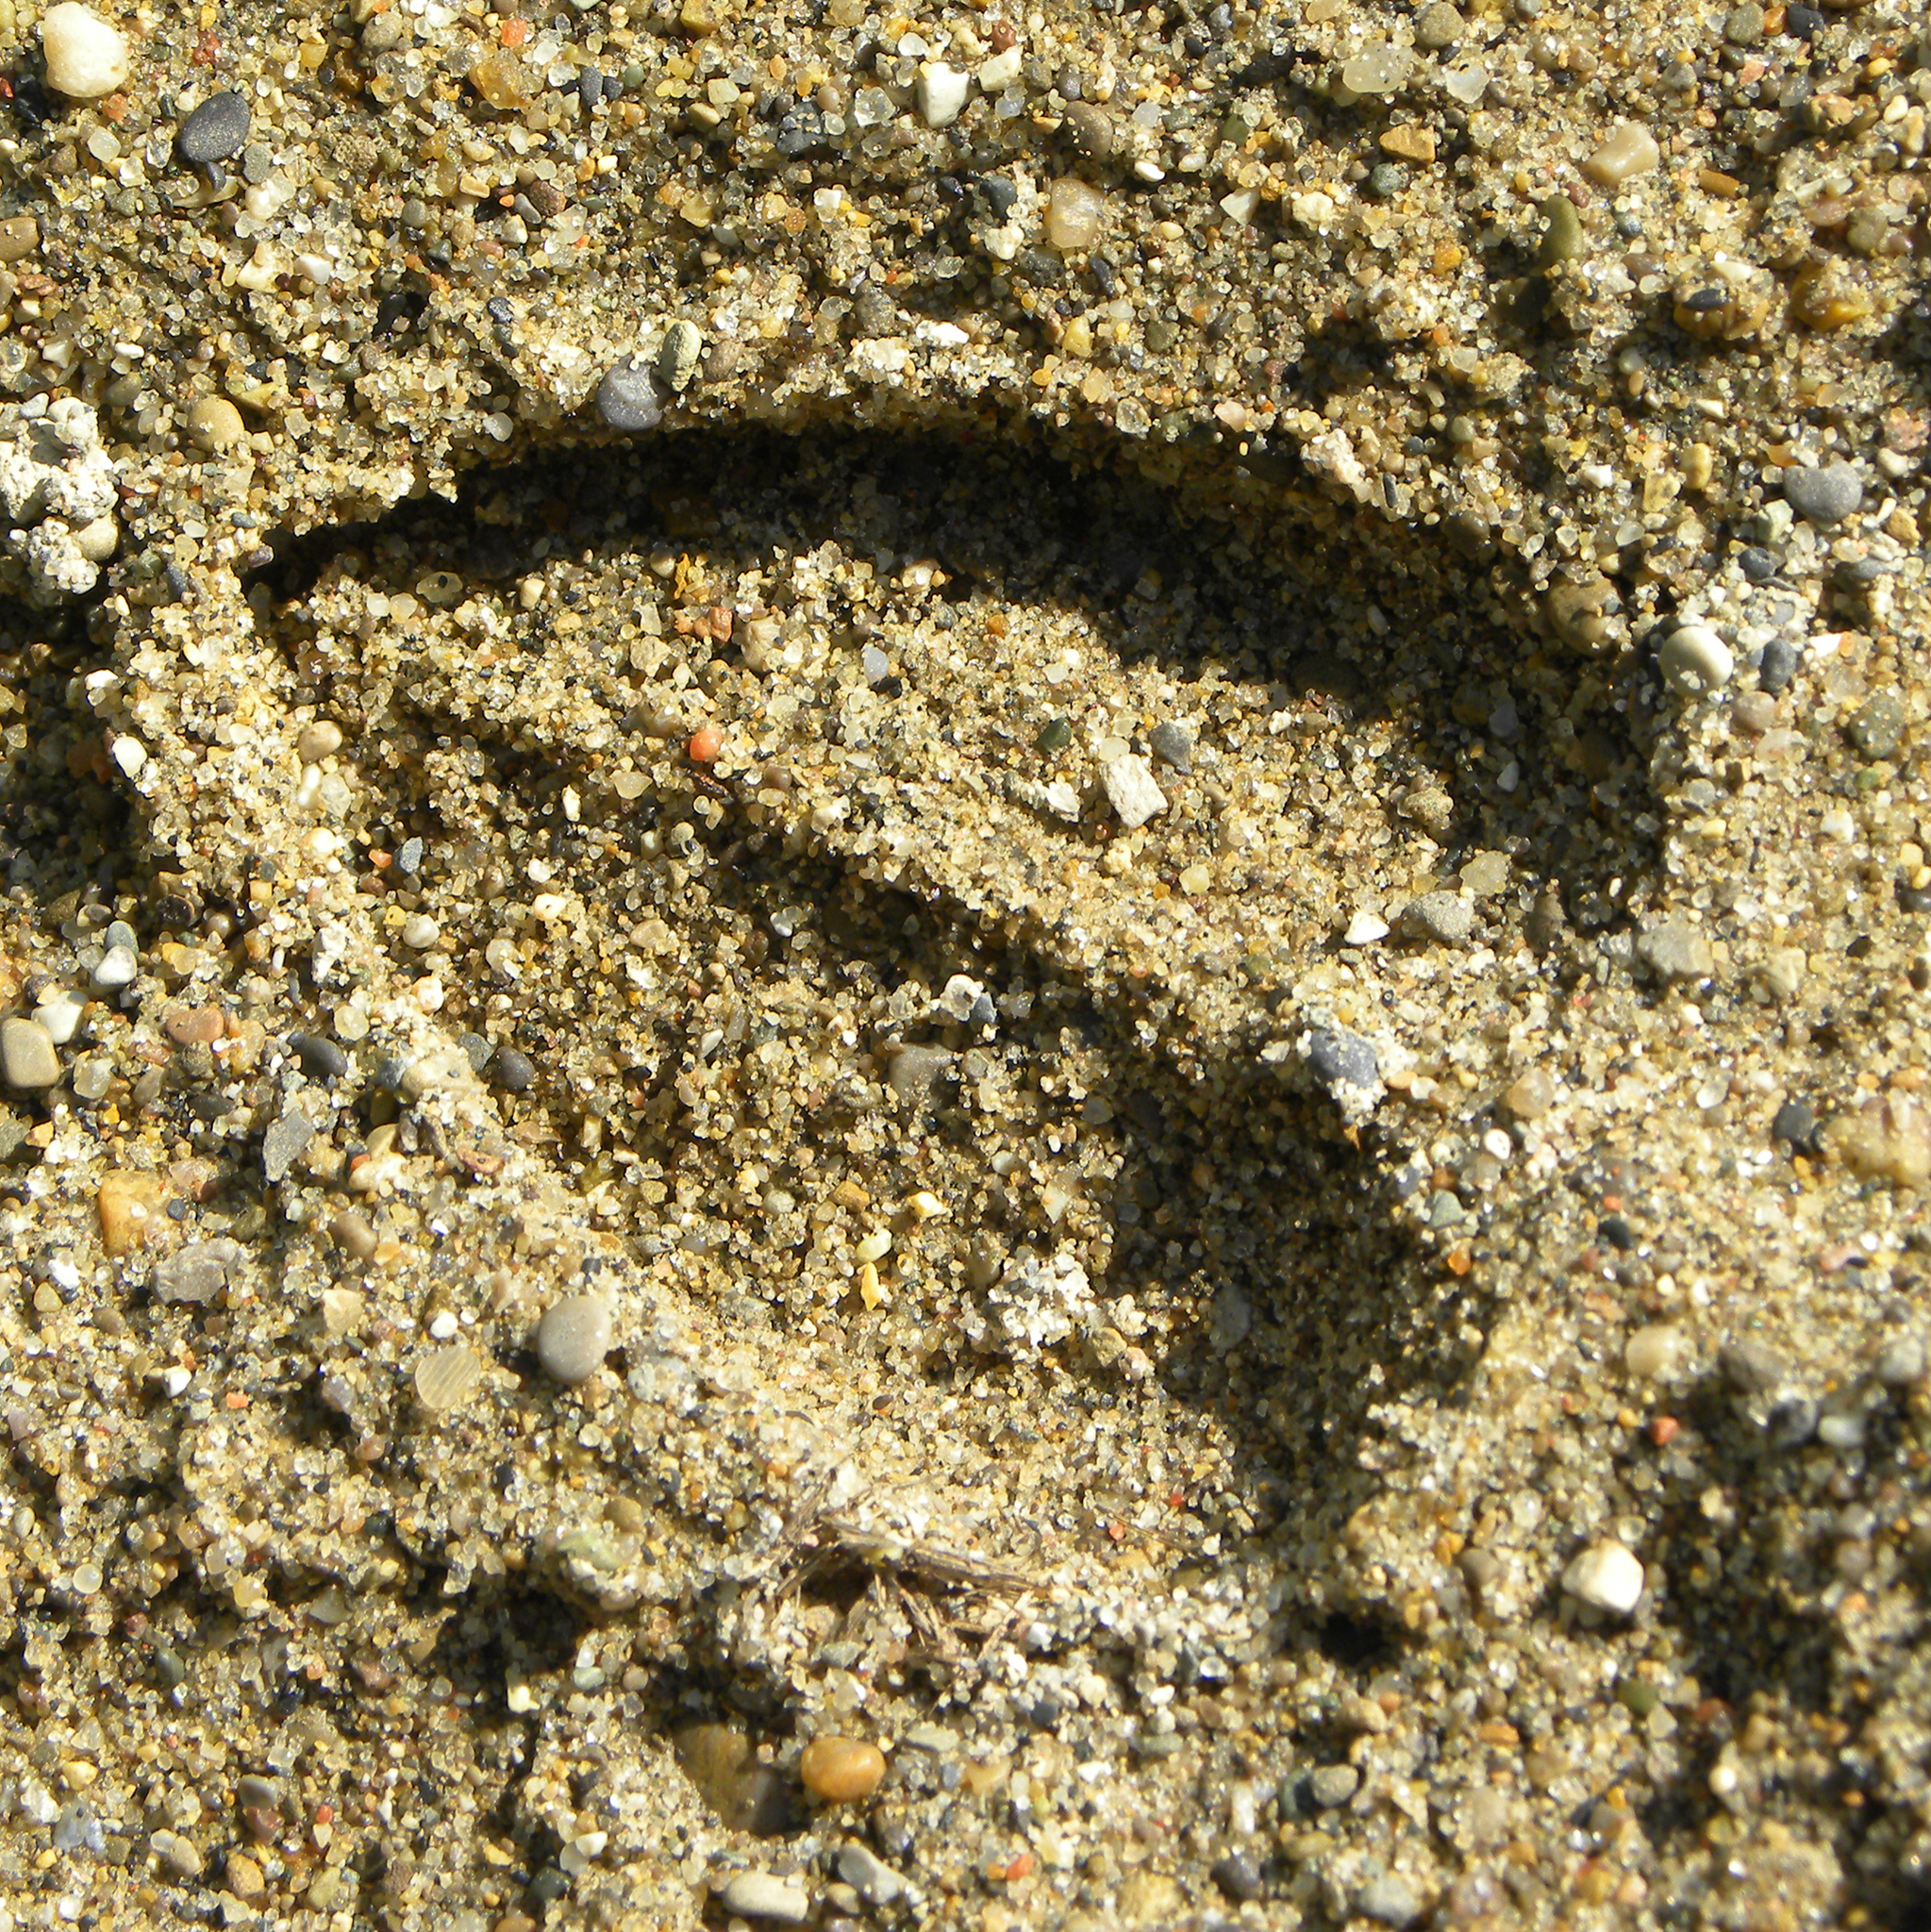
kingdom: Animalia
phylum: Chordata
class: Mammalia
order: Artiodactyla
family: Cervidae
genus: Odocoileus
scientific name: Odocoileus virginianus
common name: White-tailed deer
